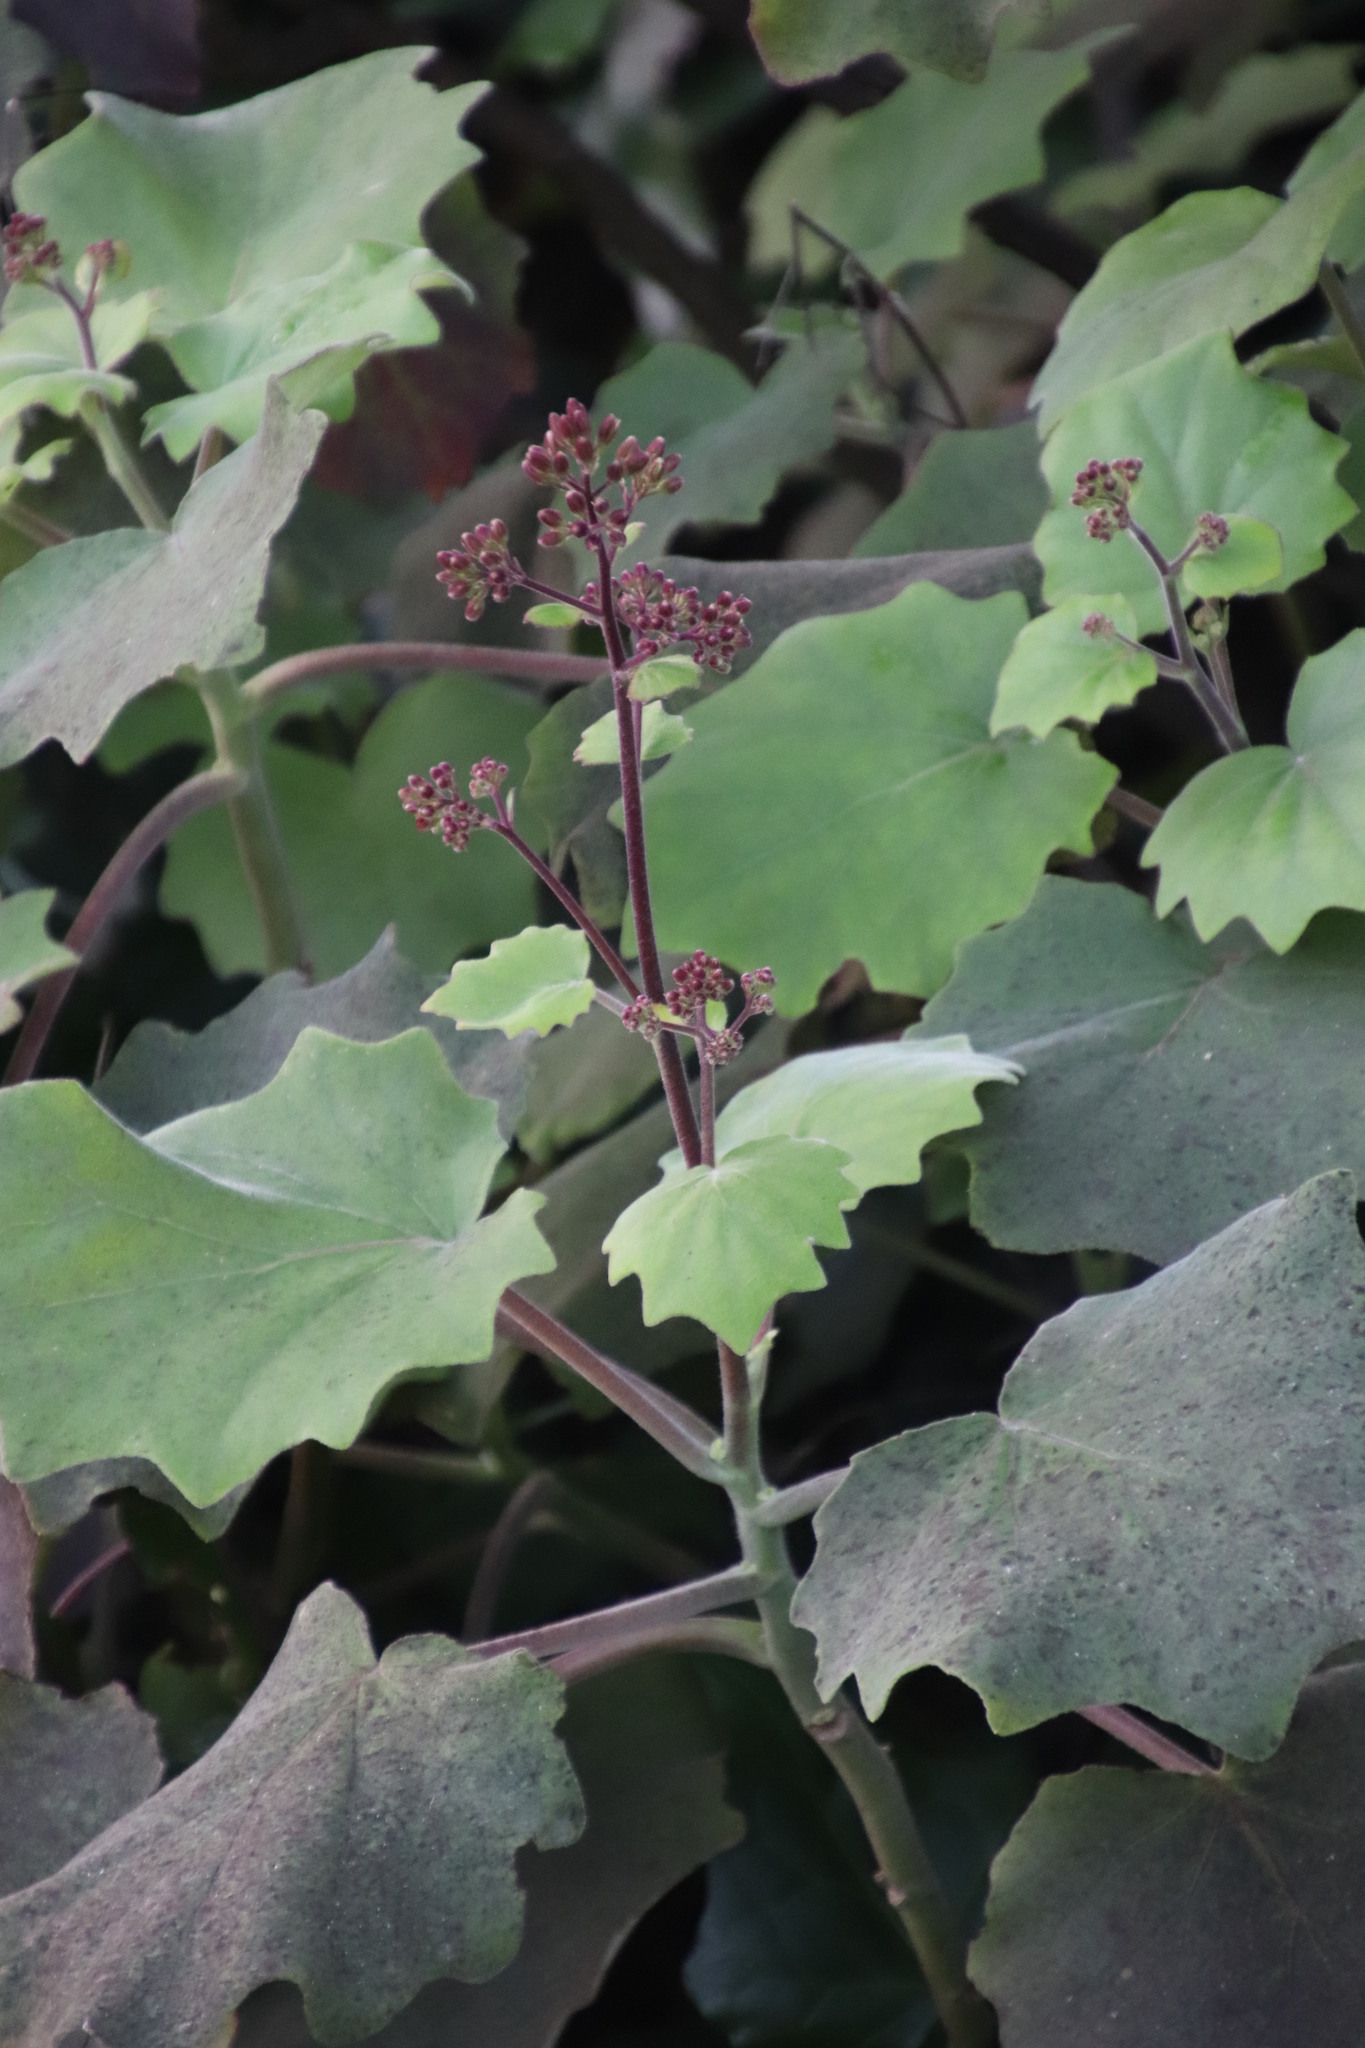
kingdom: Plantae
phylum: Tracheophyta
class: Magnoliopsida
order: Asterales
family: Asteraceae
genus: Roldana
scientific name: Roldana petasitis
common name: California-geranium
